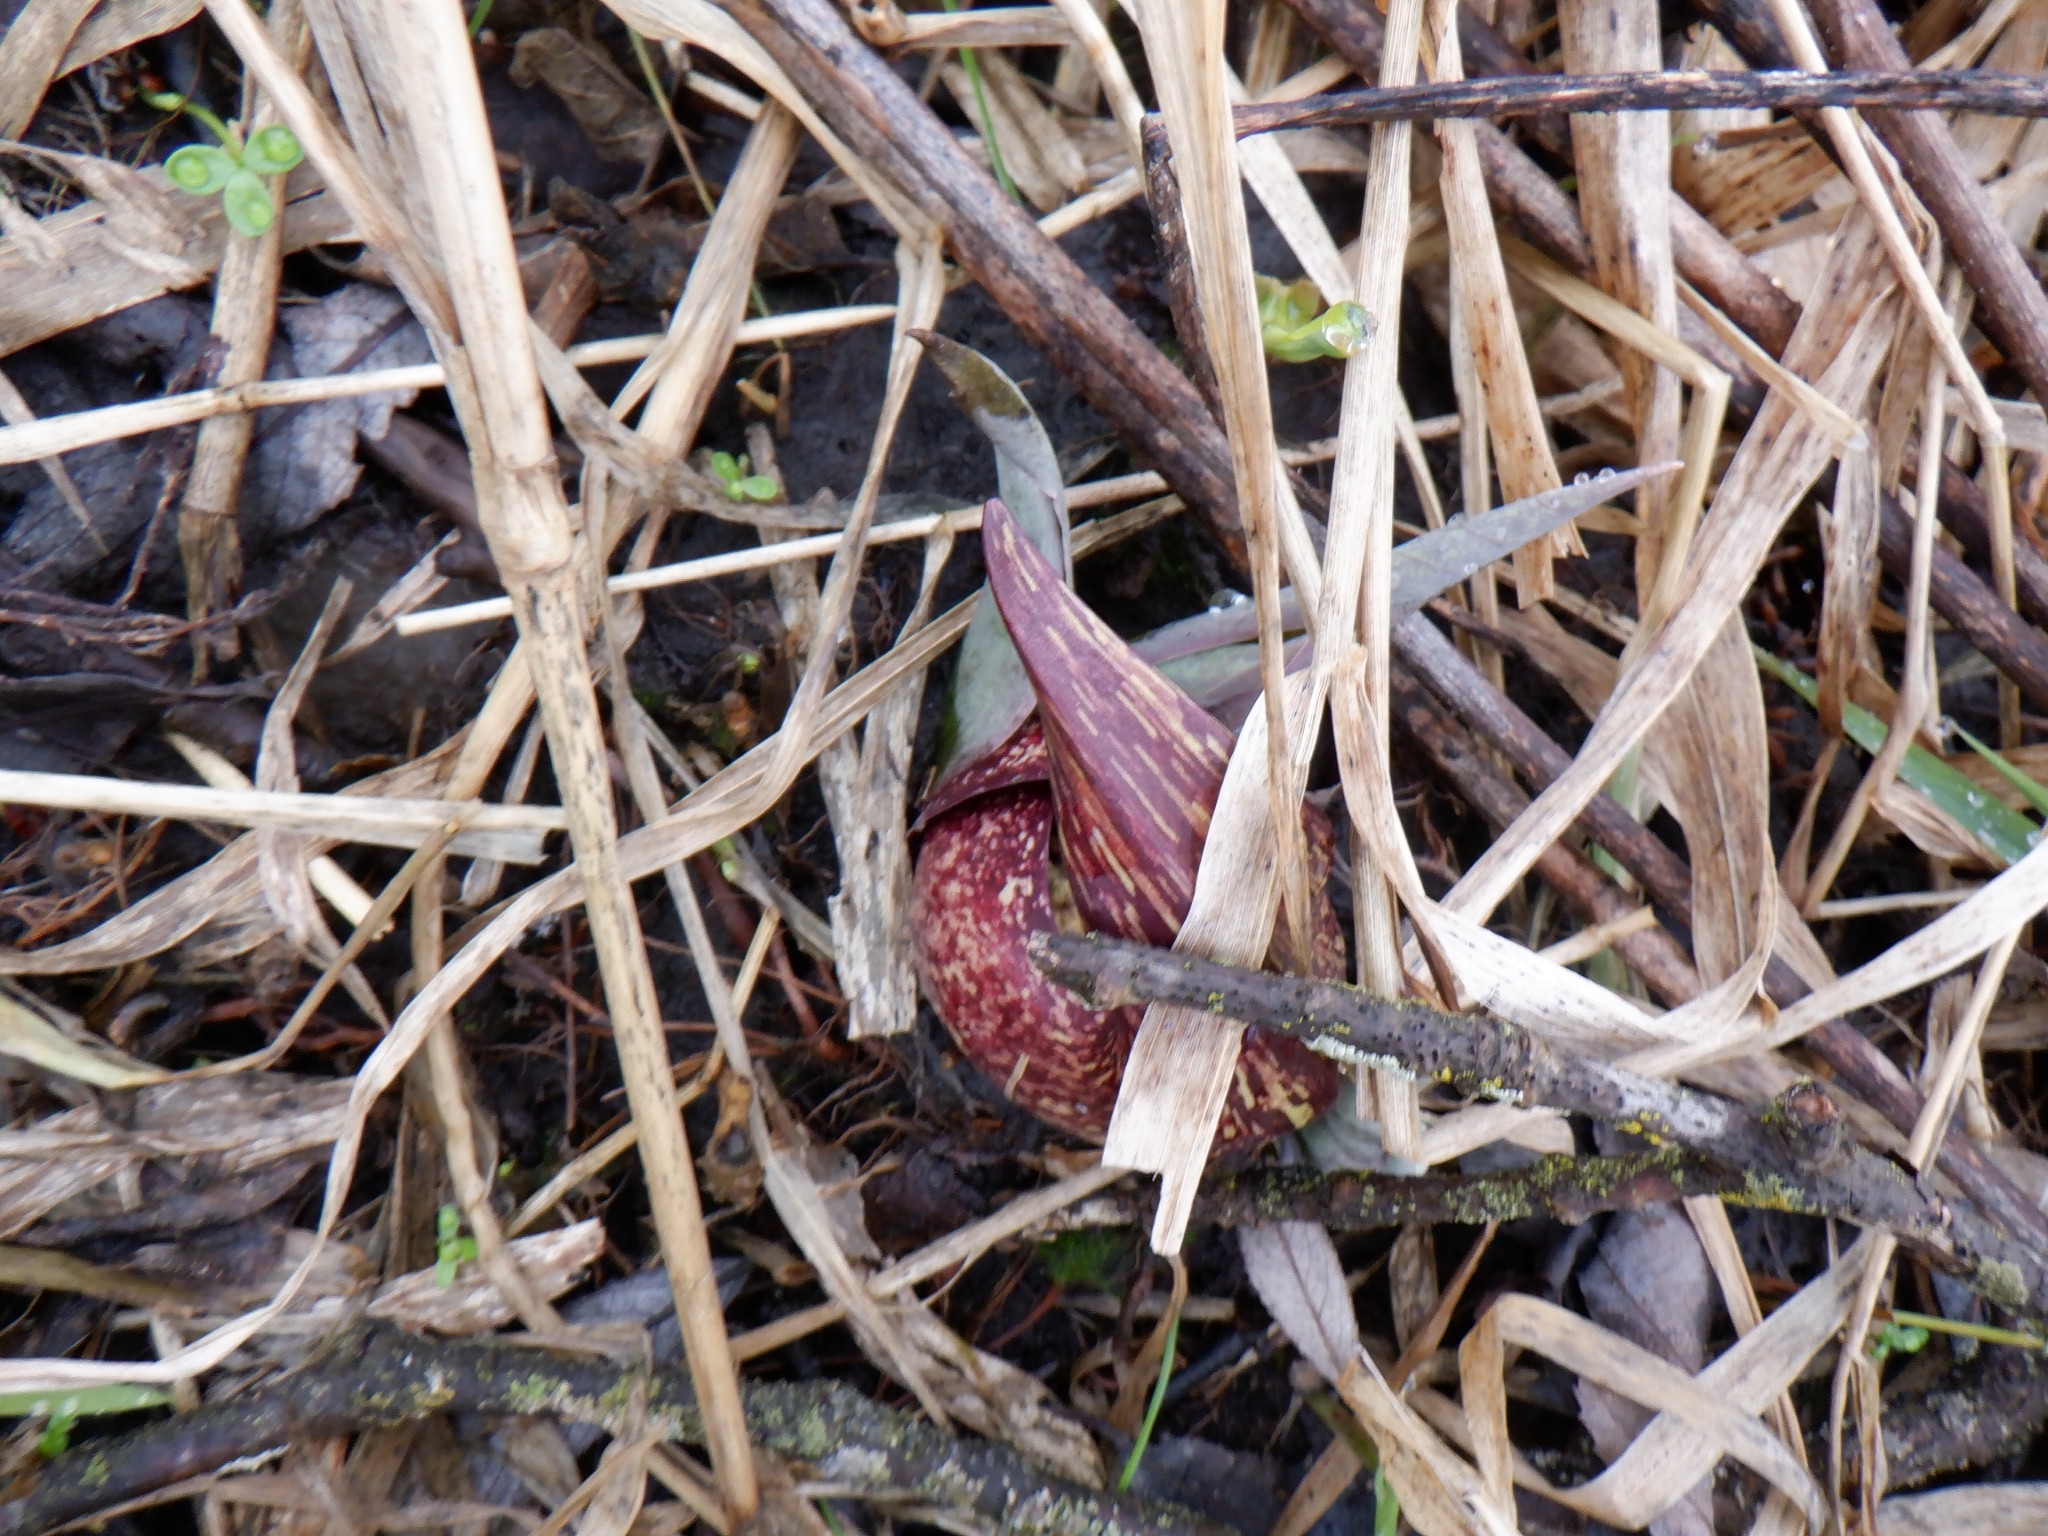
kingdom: Plantae
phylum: Tracheophyta
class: Liliopsida
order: Alismatales
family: Araceae
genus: Symplocarpus
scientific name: Symplocarpus foetidus
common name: Eastern skunk cabbage
